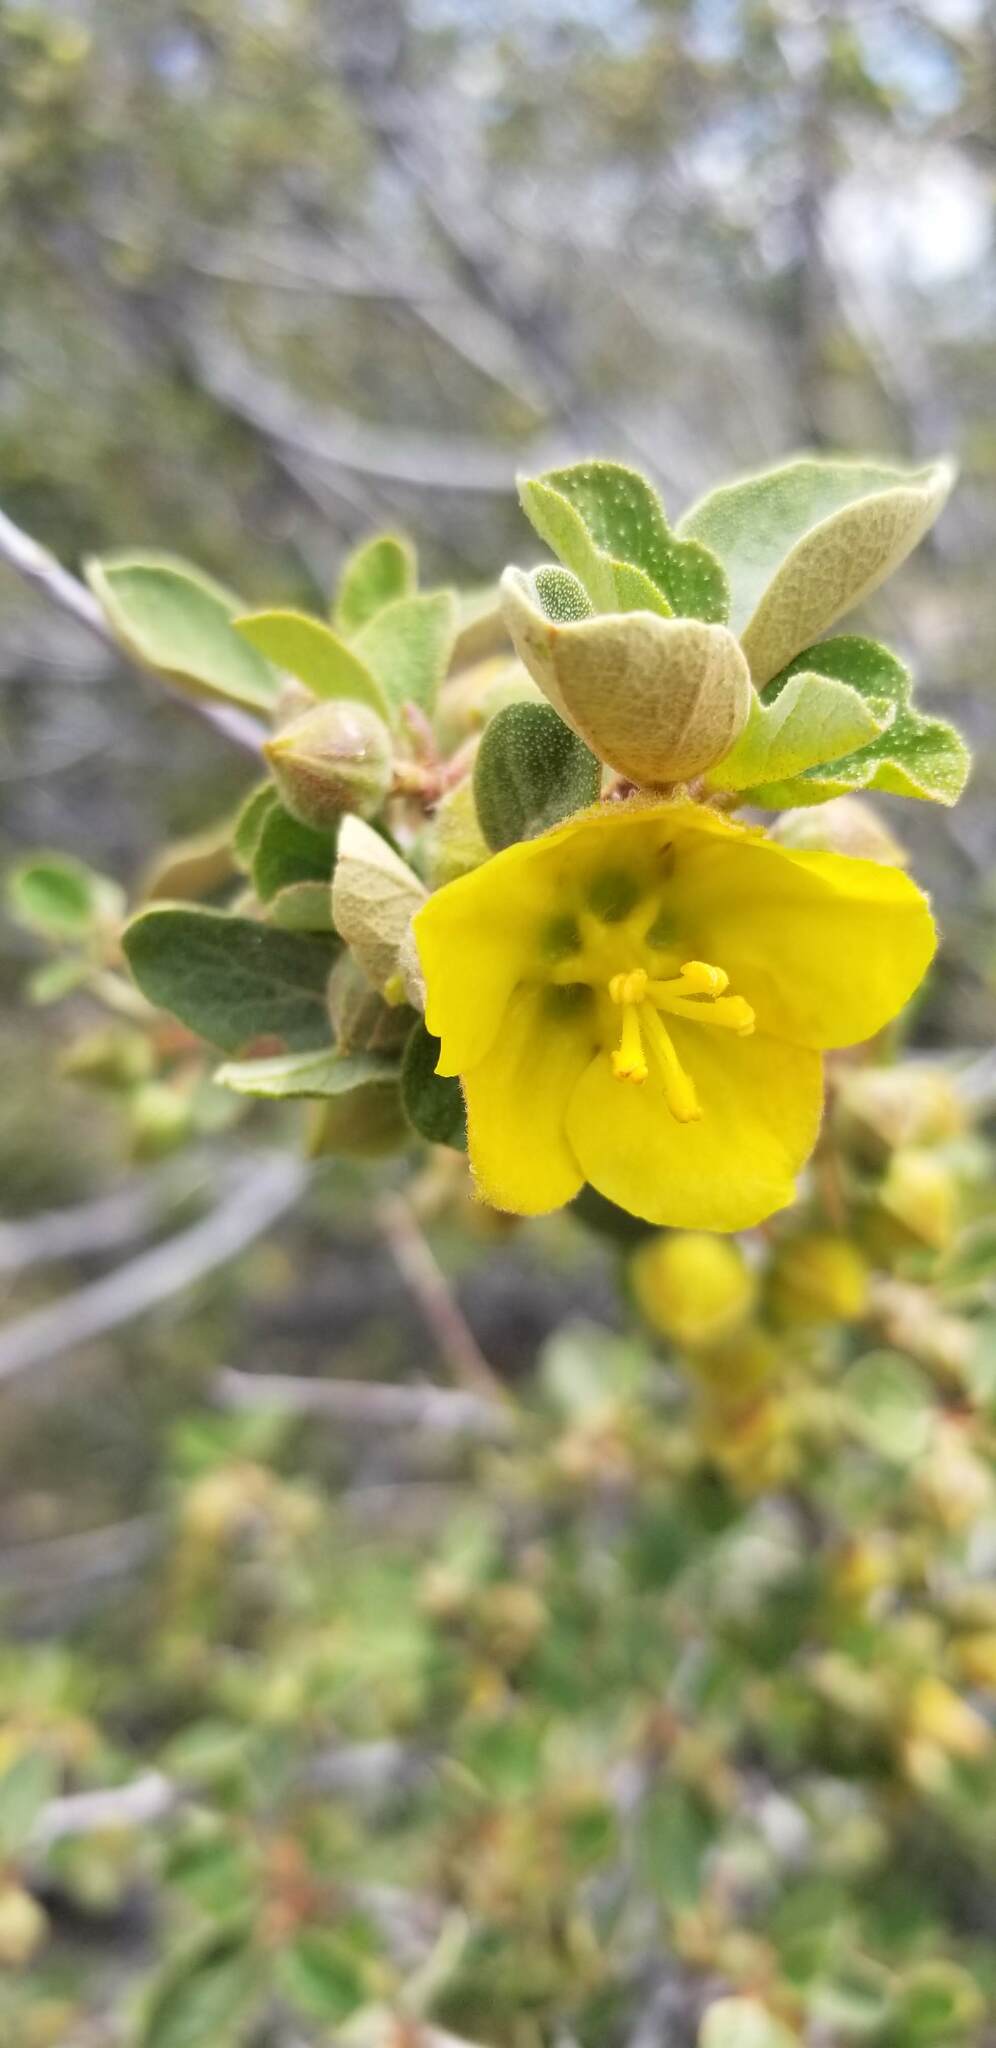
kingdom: Plantae
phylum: Tracheophyta
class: Magnoliopsida
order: Malvales
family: Malvaceae
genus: Fremontodendron
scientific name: Fremontodendron californicum
